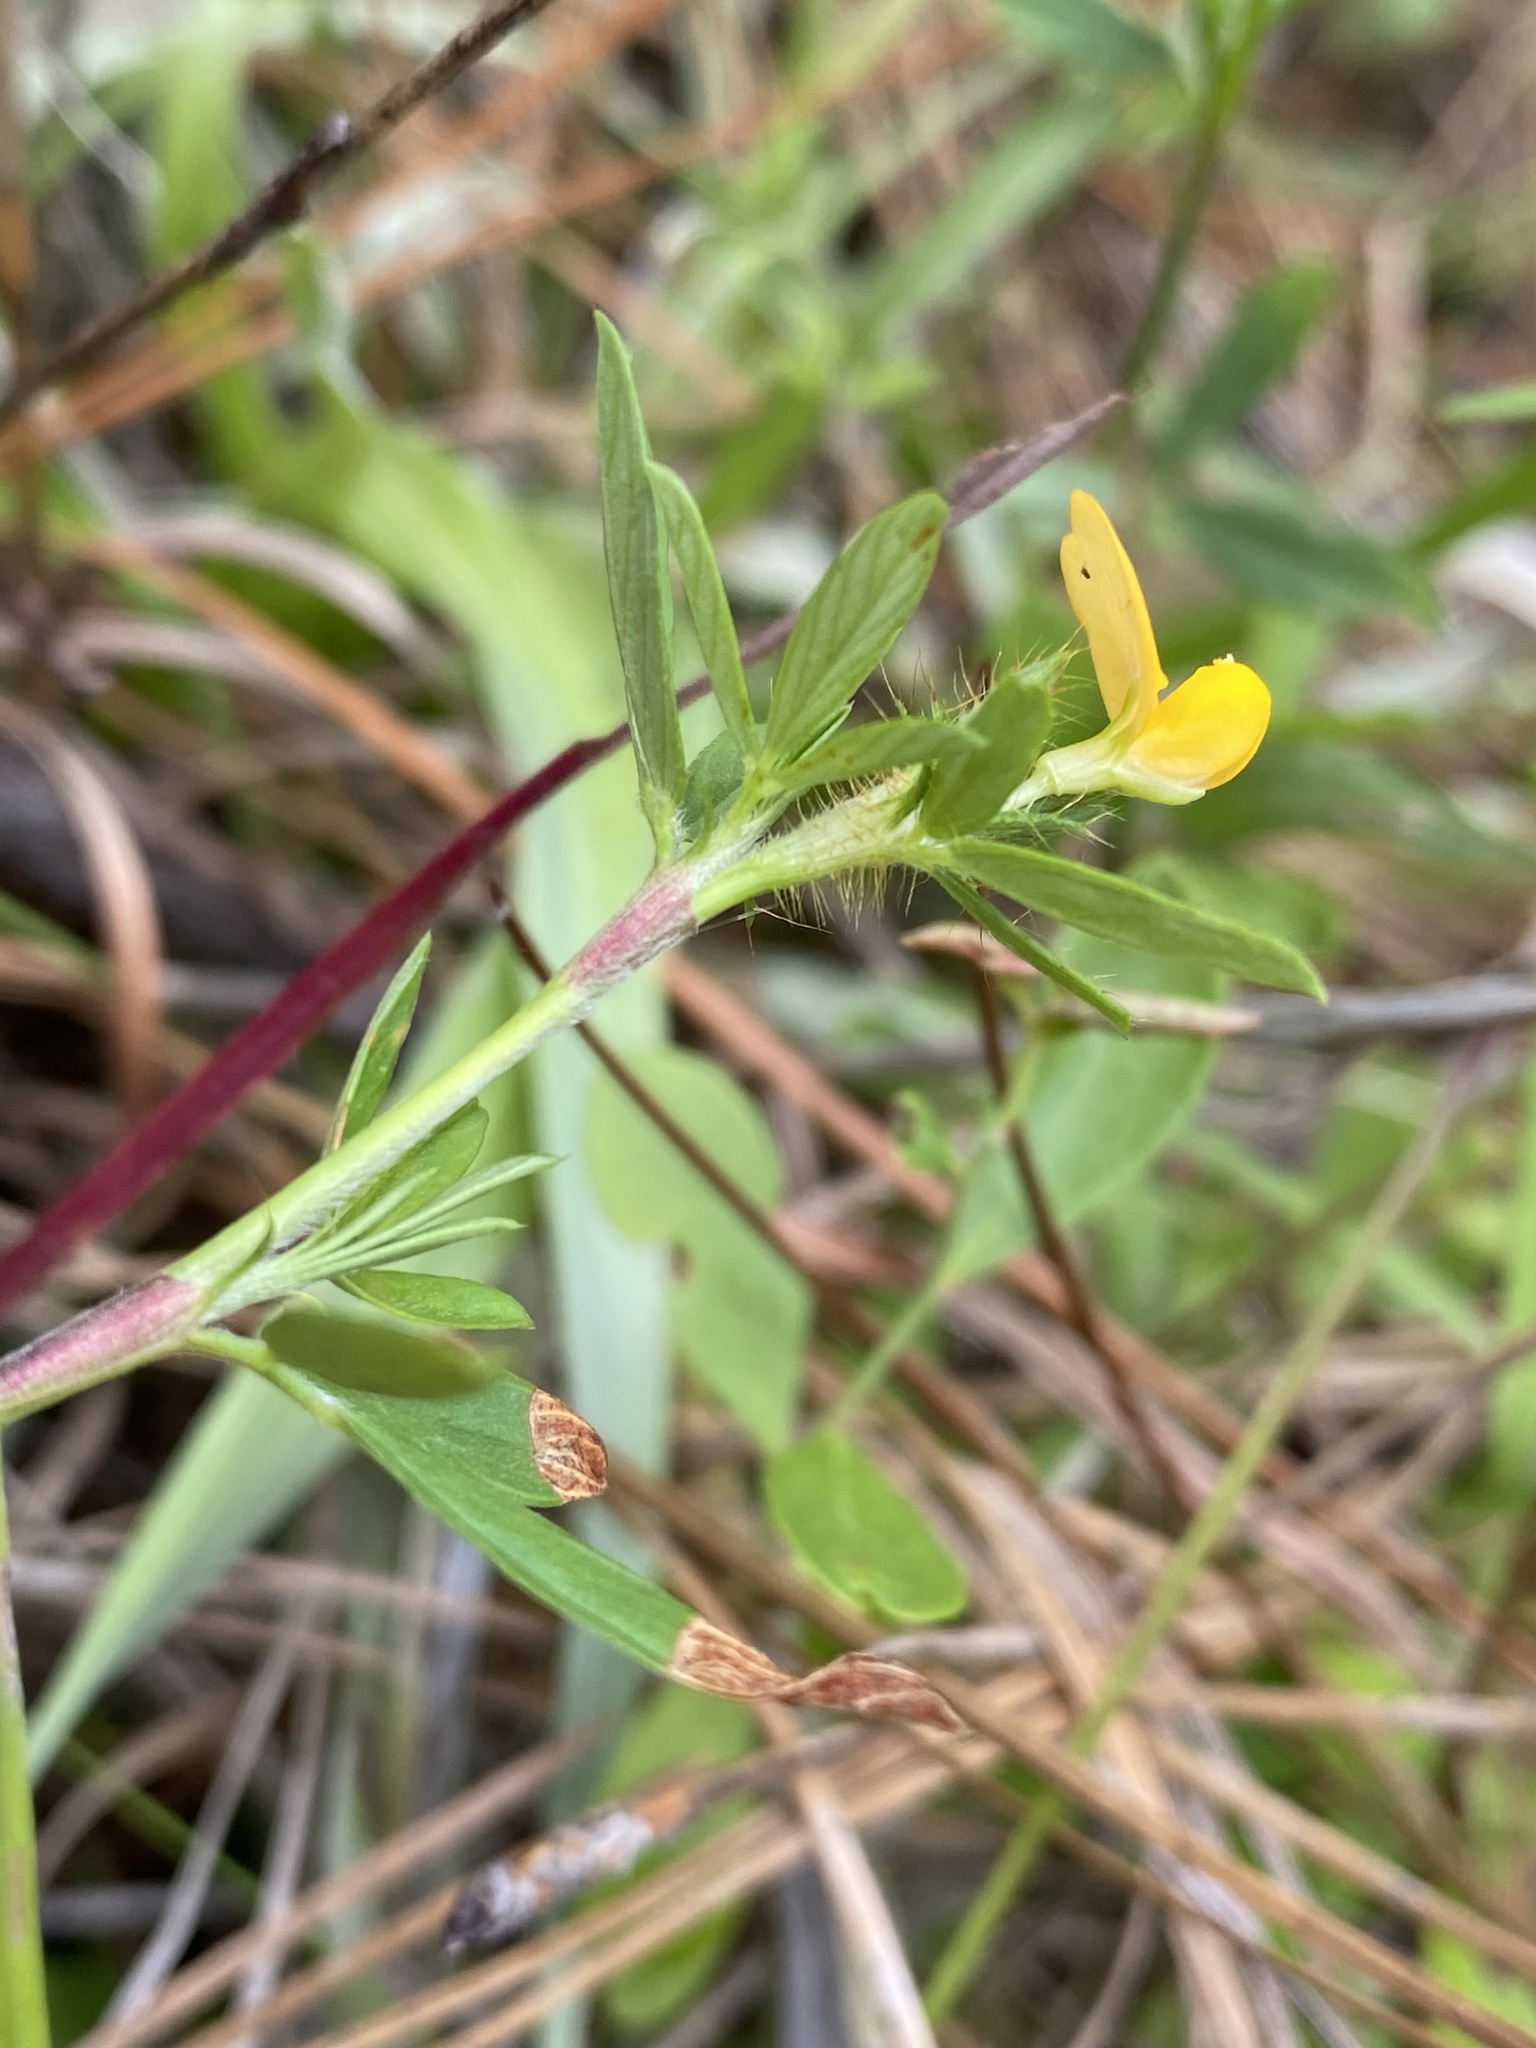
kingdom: Plantae
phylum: Tracheophyta
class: Magnoliopsida
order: Fabales
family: Fabaceae
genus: Stylosanthes
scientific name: Stylosanthes biflora
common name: Two-flower pencil-flower
